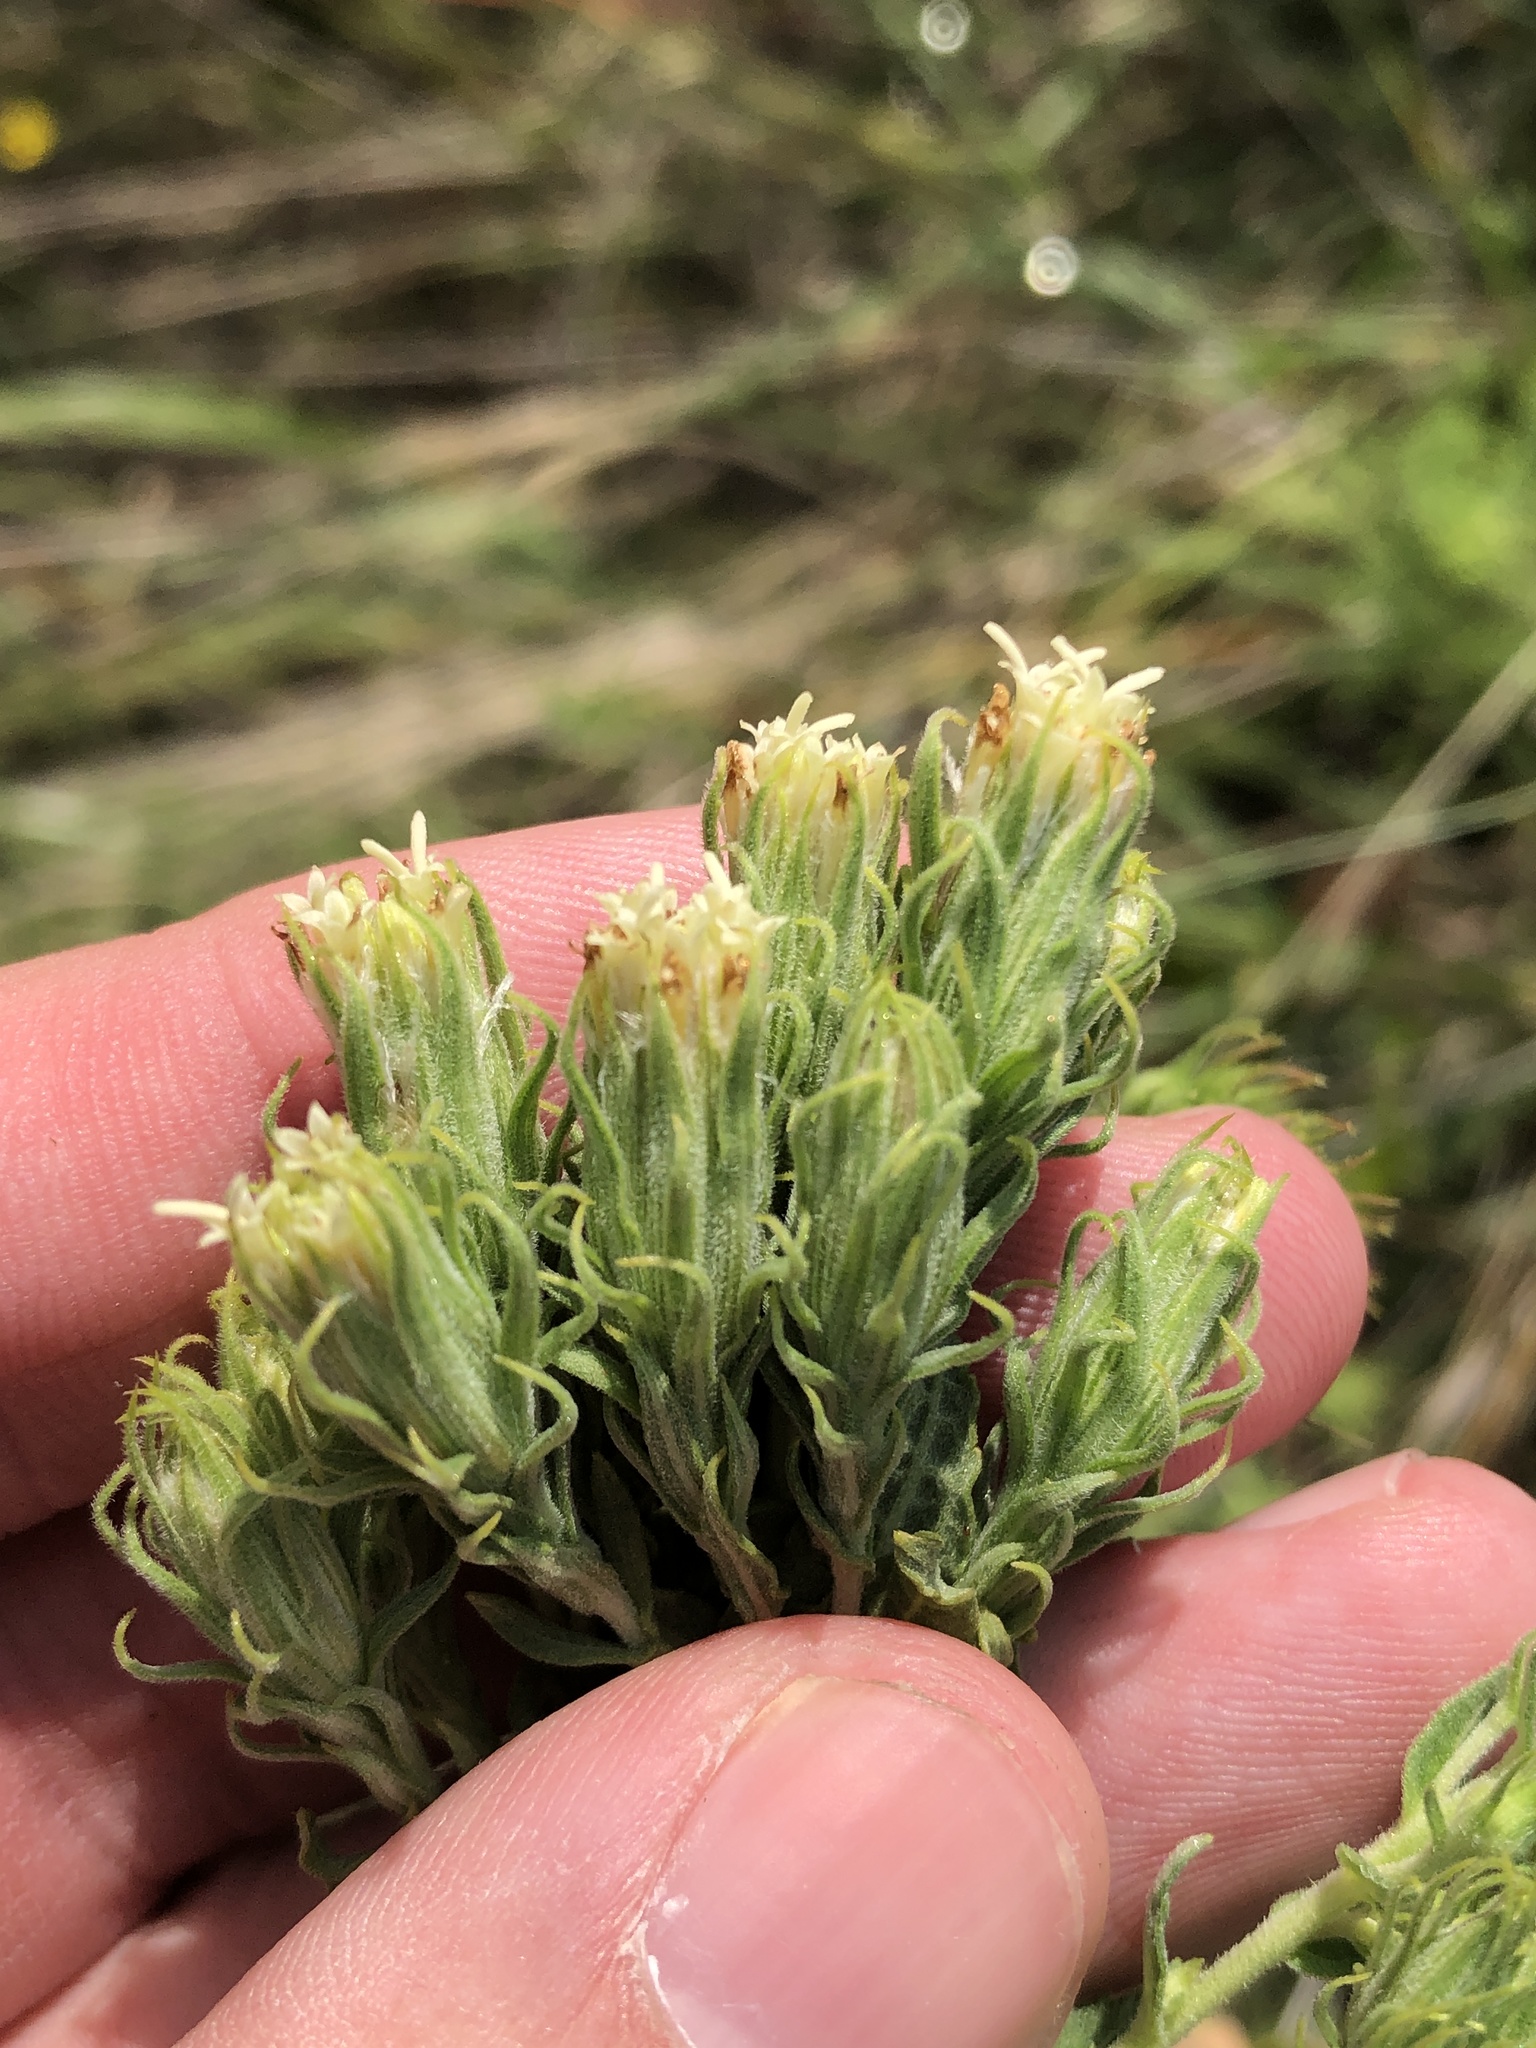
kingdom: Plantae
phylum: Tracheophyta
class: Magnoliopsida
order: Asterales
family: Asteraceae
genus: Brickellia
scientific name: Brickellia eupatorioides
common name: False boneset
